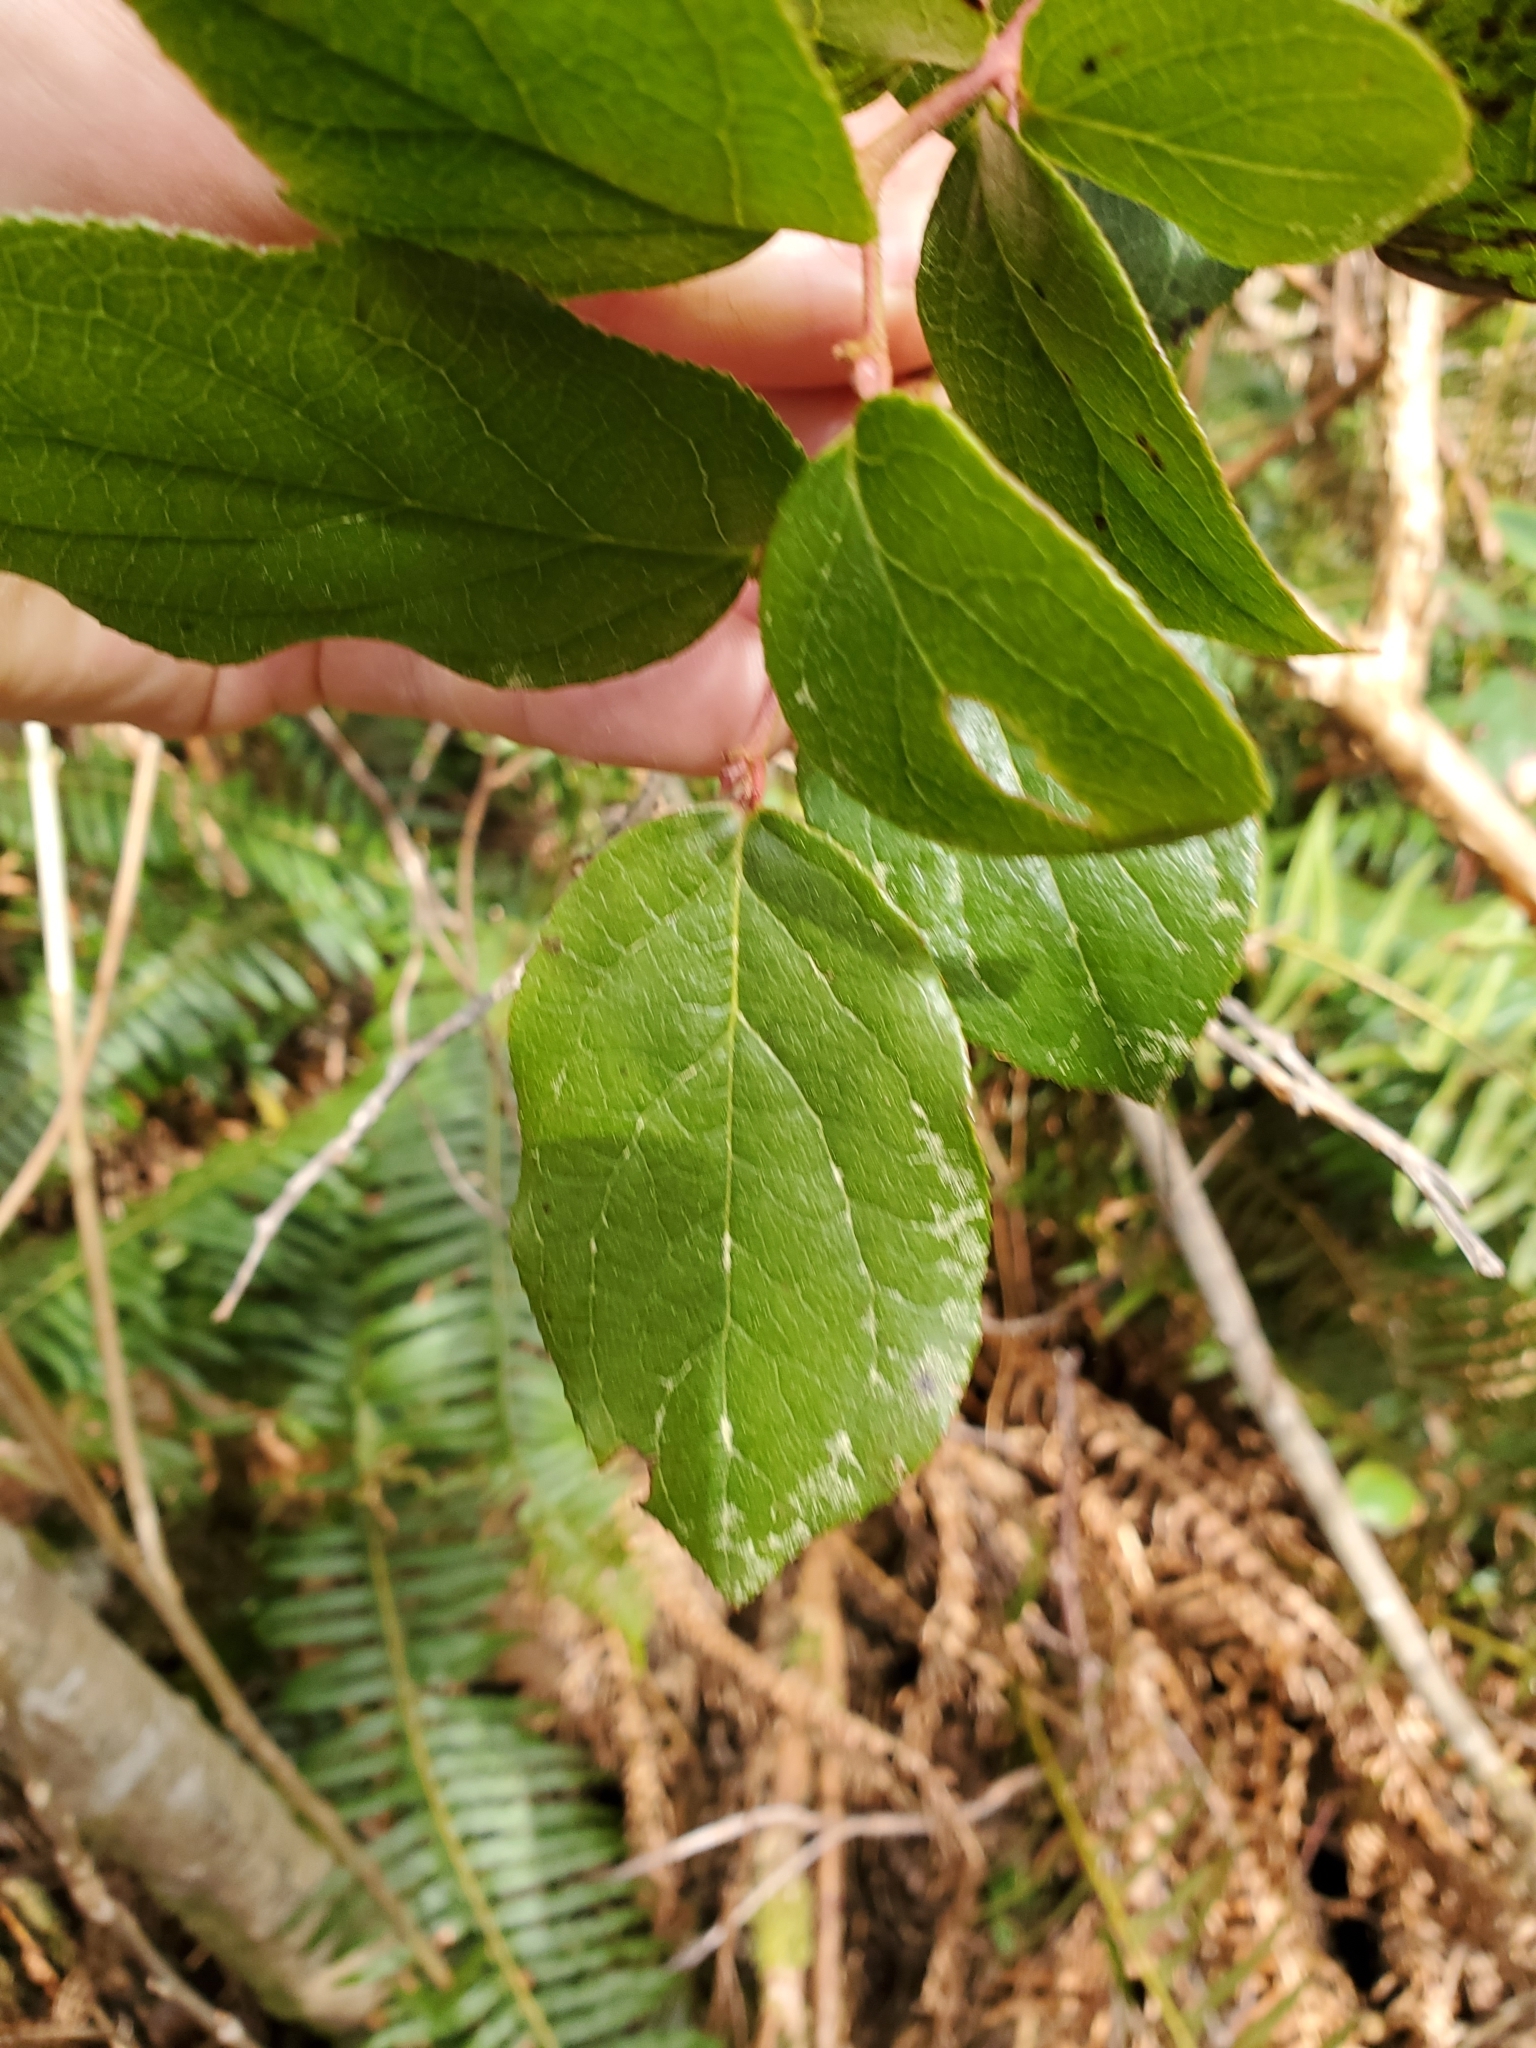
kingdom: Plantae
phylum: Tracheophyta
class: Magnoliopsida
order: Ericales
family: Ericaceae
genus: Gaultheria
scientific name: Gaultheria shallon
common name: Shallon
